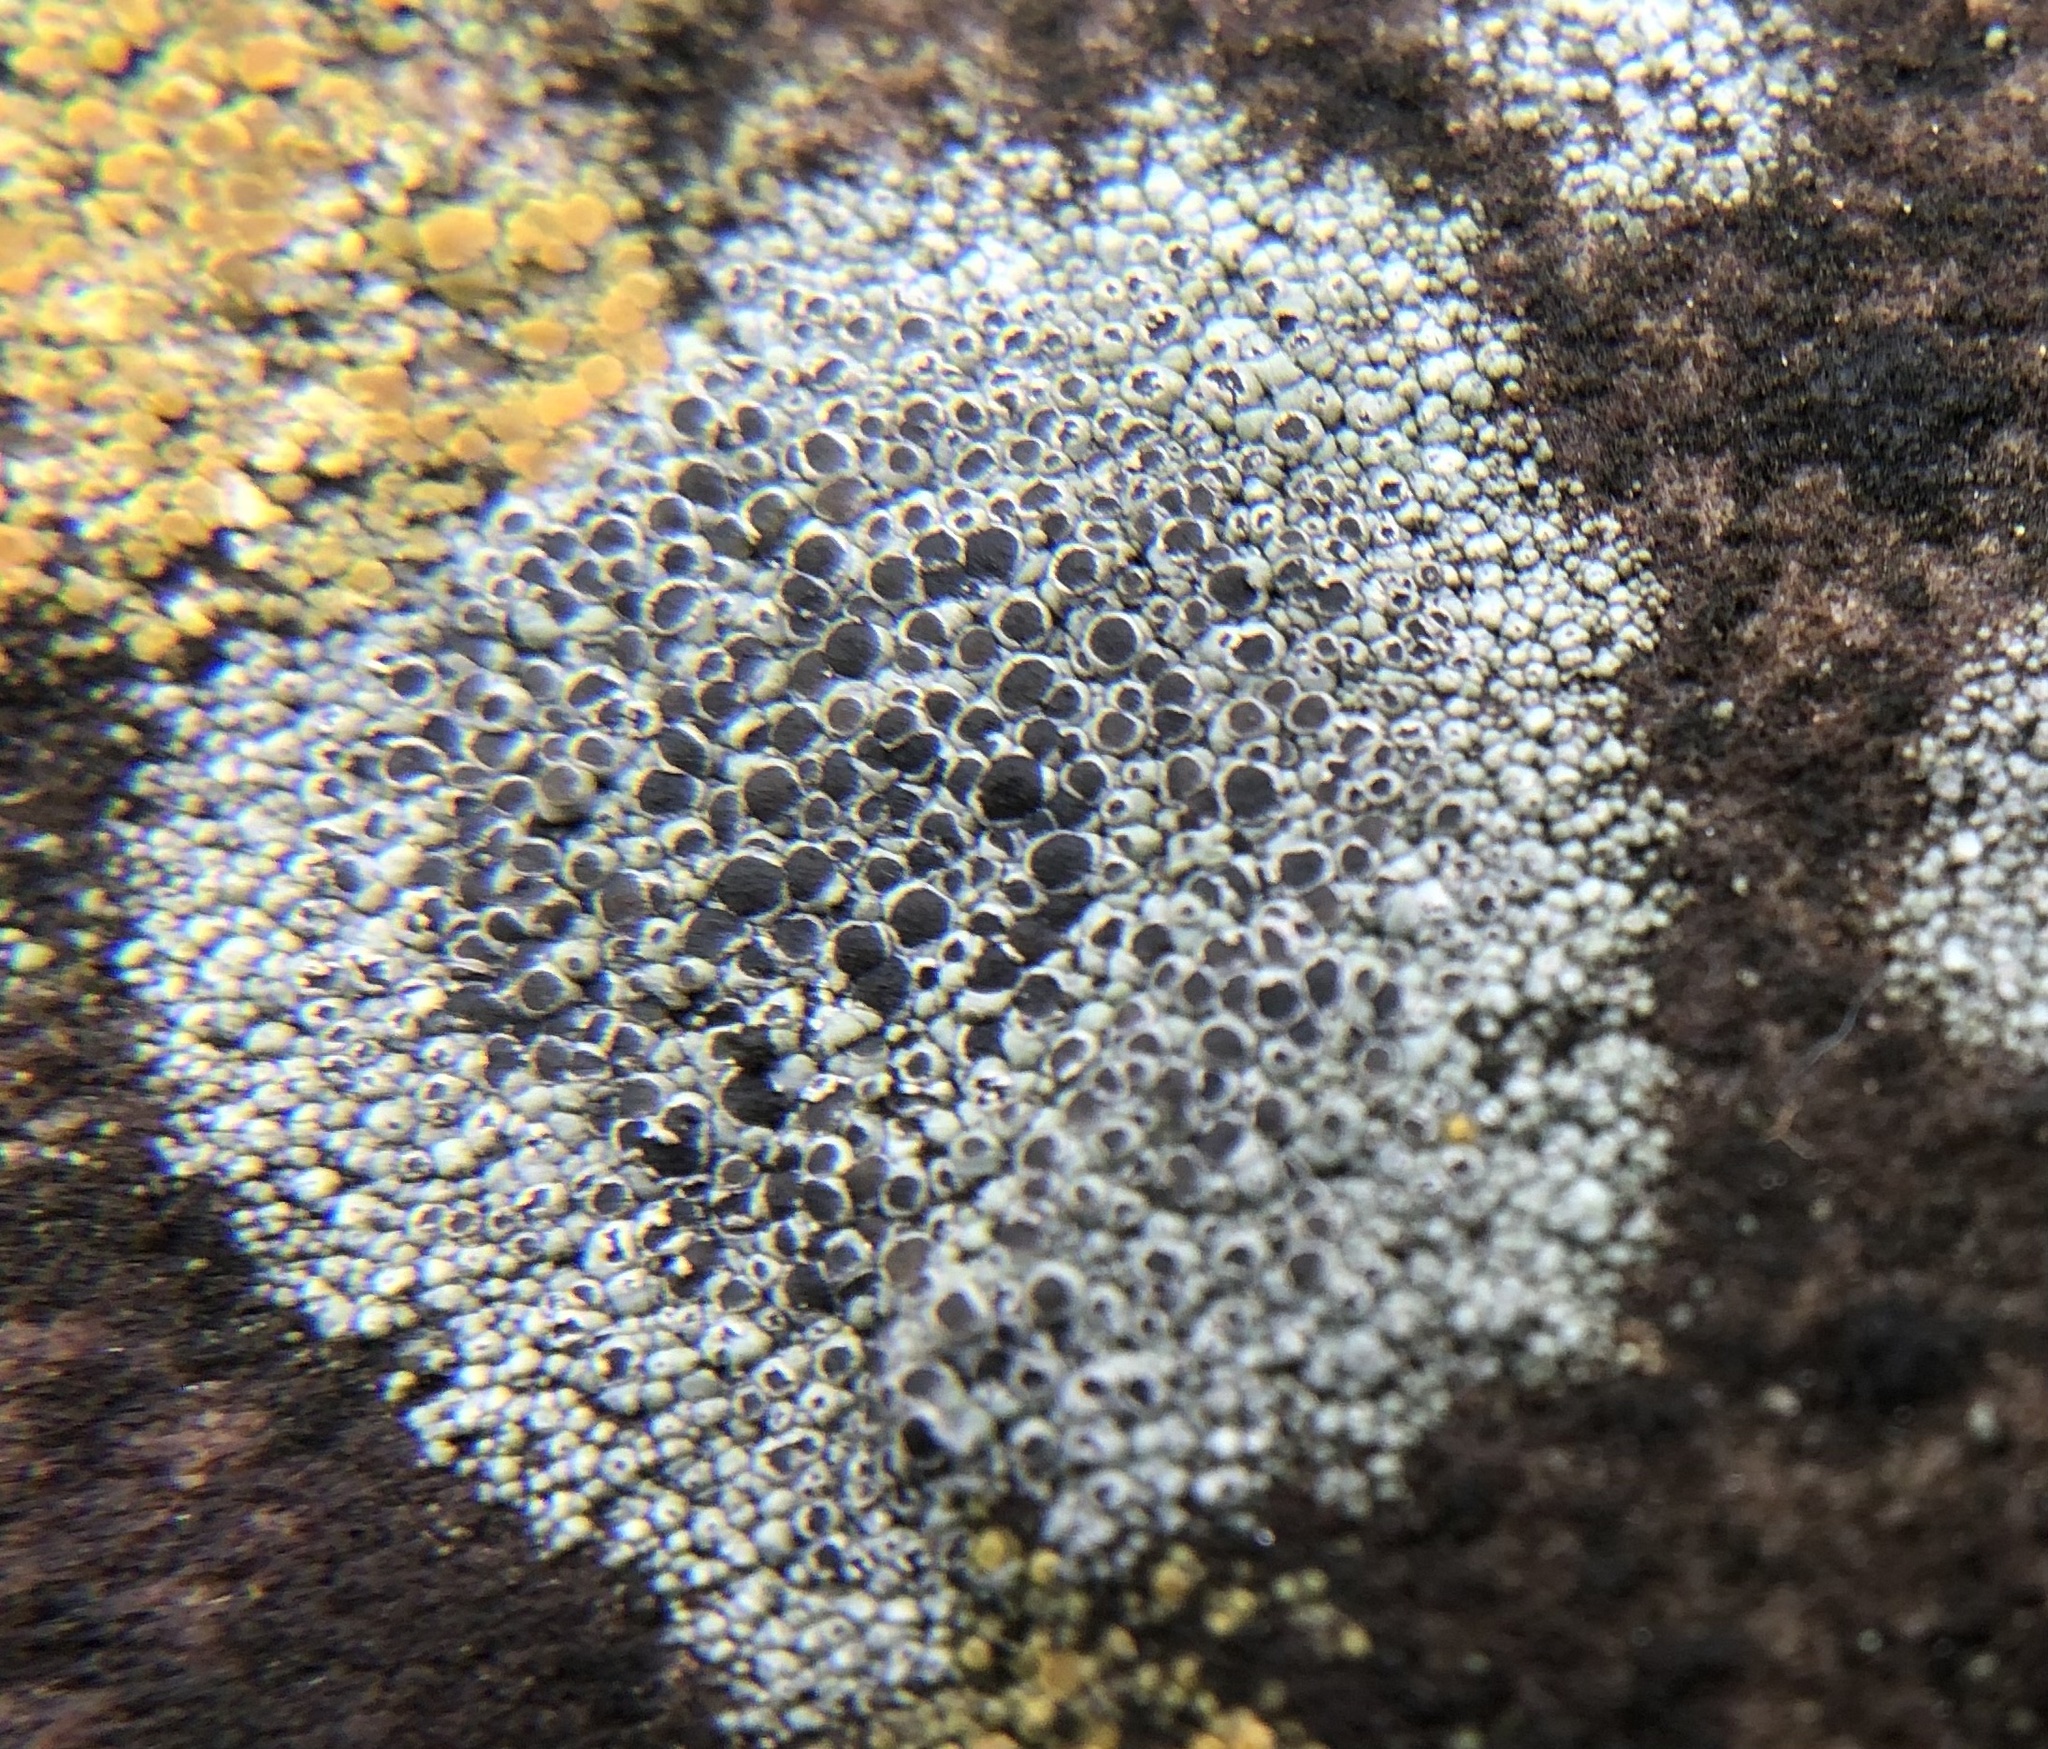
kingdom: Fungi
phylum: Ascomycota
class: Lecanoromycetes
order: Lecanorales
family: Lecanoraceae
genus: Lecanora
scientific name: Lecanora cenisia
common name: Smoky rim lichen
